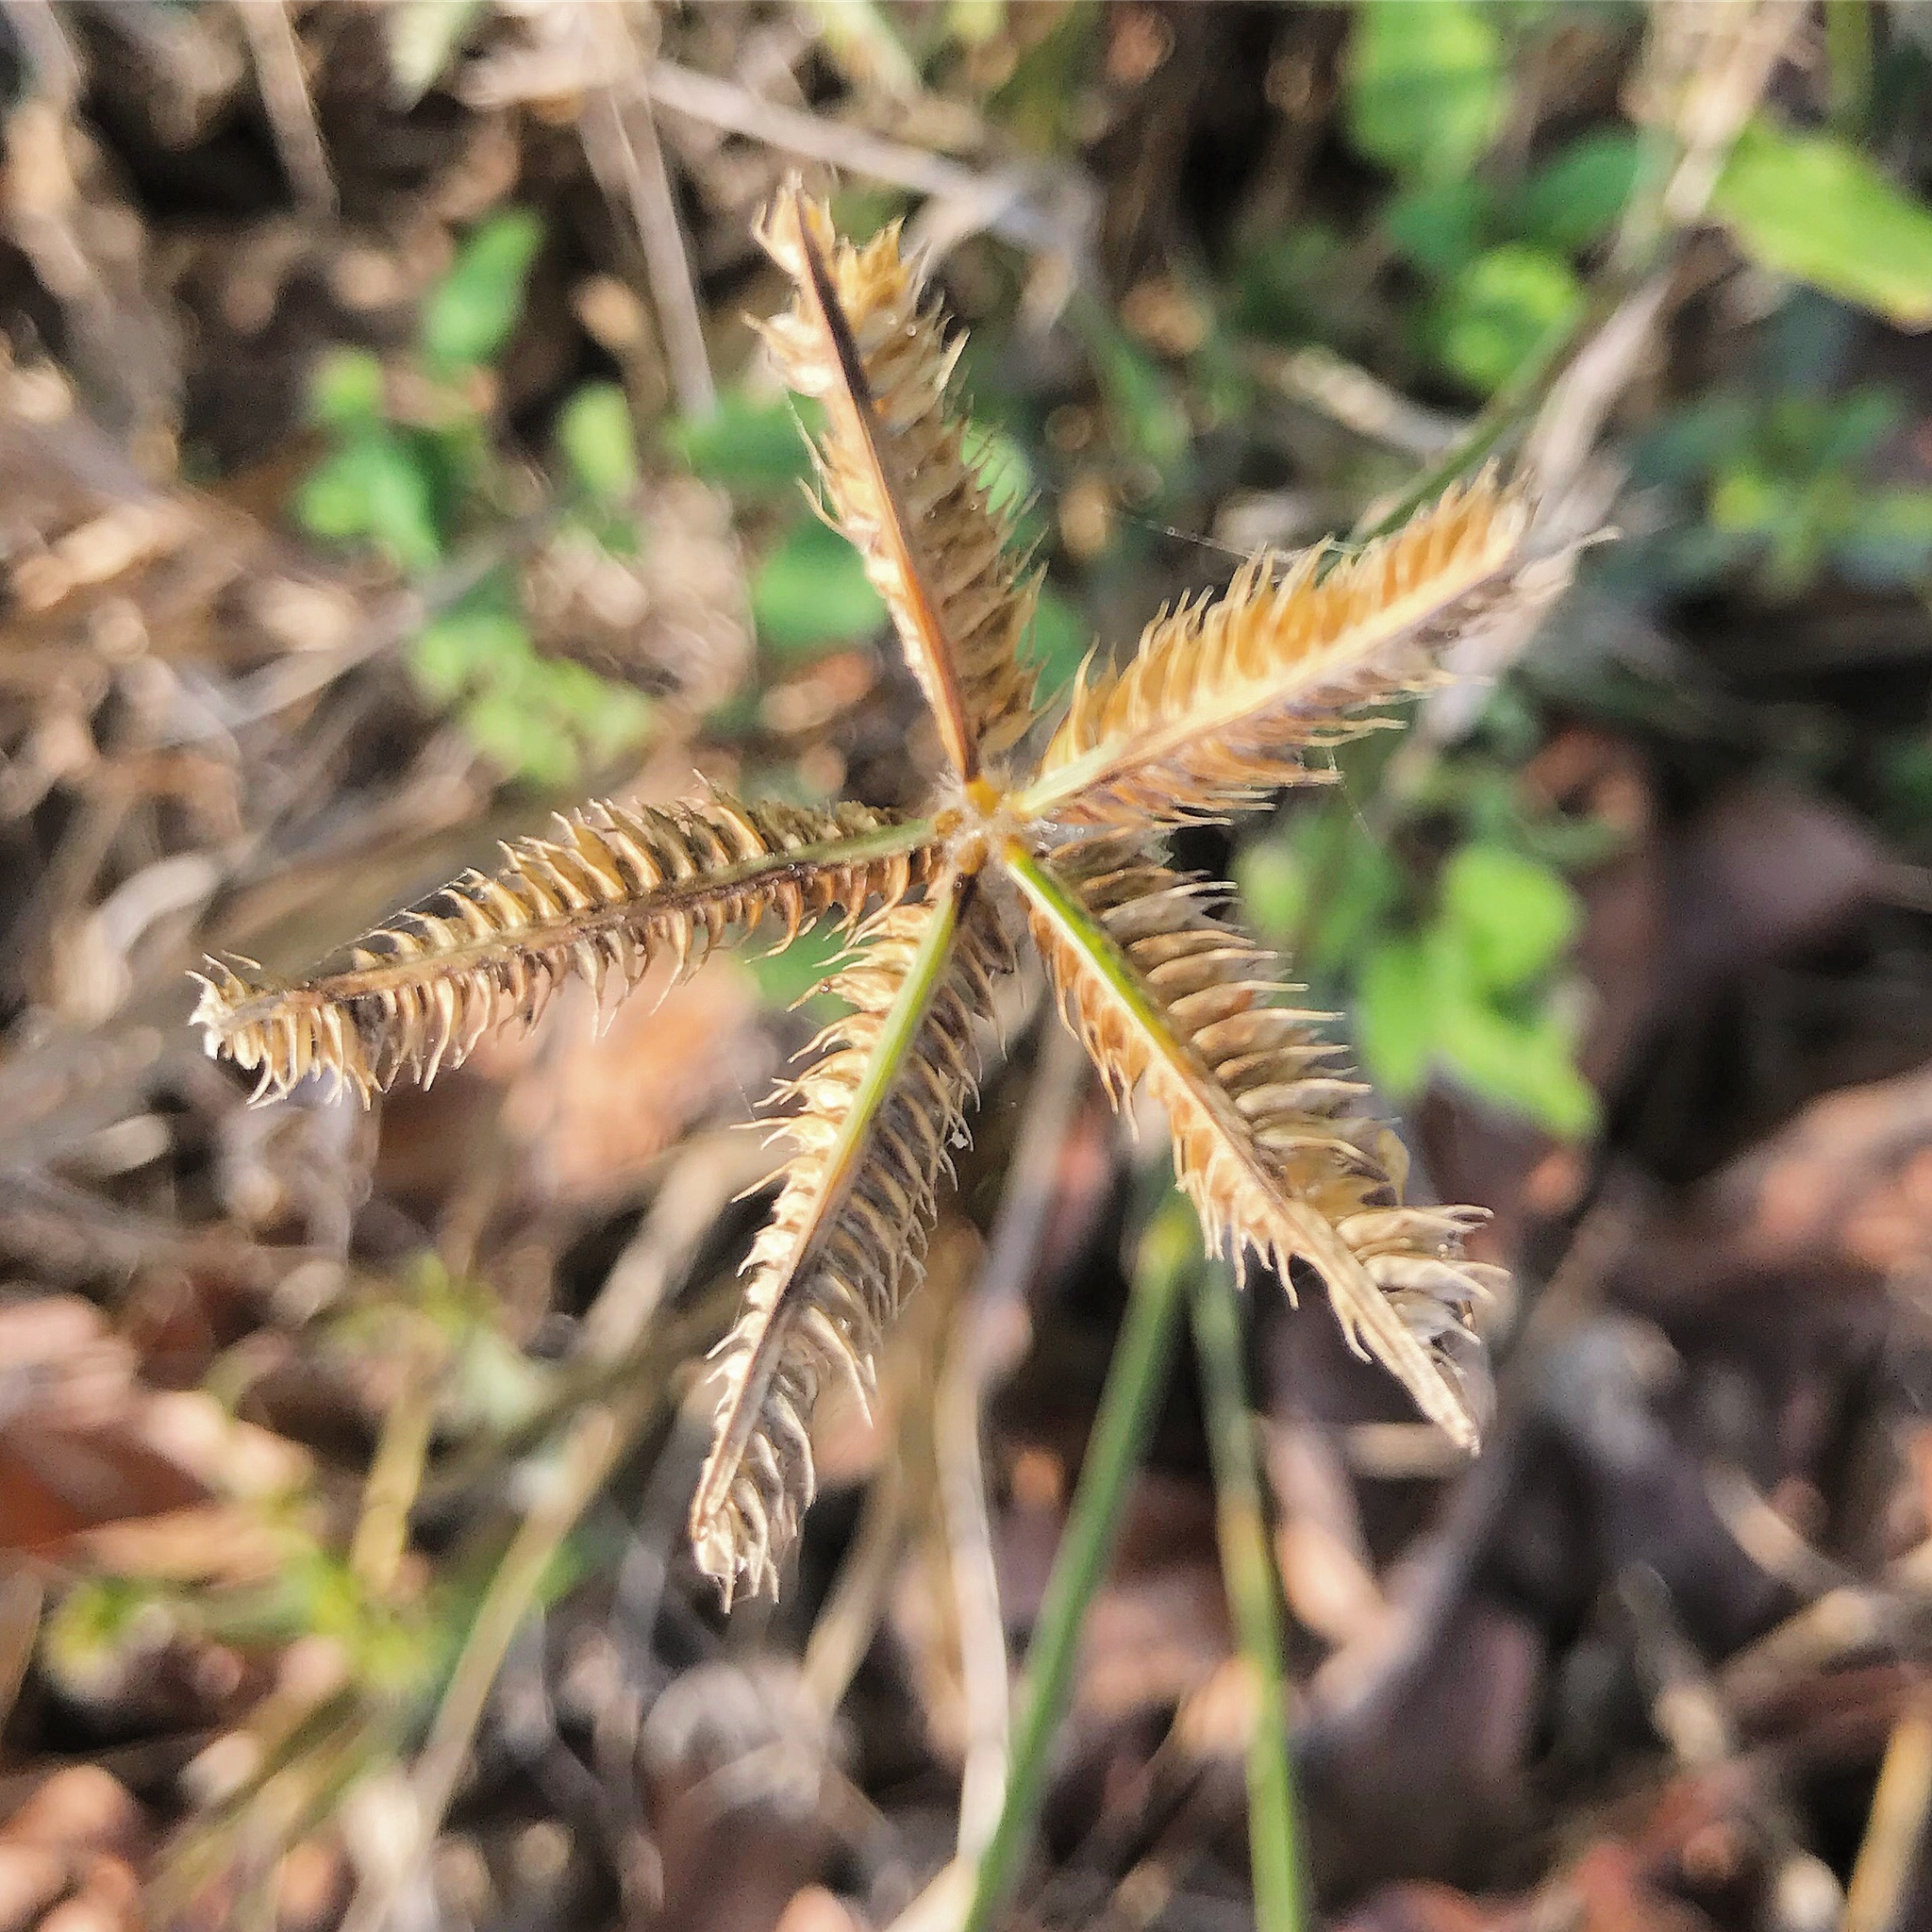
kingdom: Plantae
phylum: Tracheophyta
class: Liliopsida
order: Poales
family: Poaceae
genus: Dactyloctenium
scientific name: Dactyloctenium aegyptium
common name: Egyptian grass
